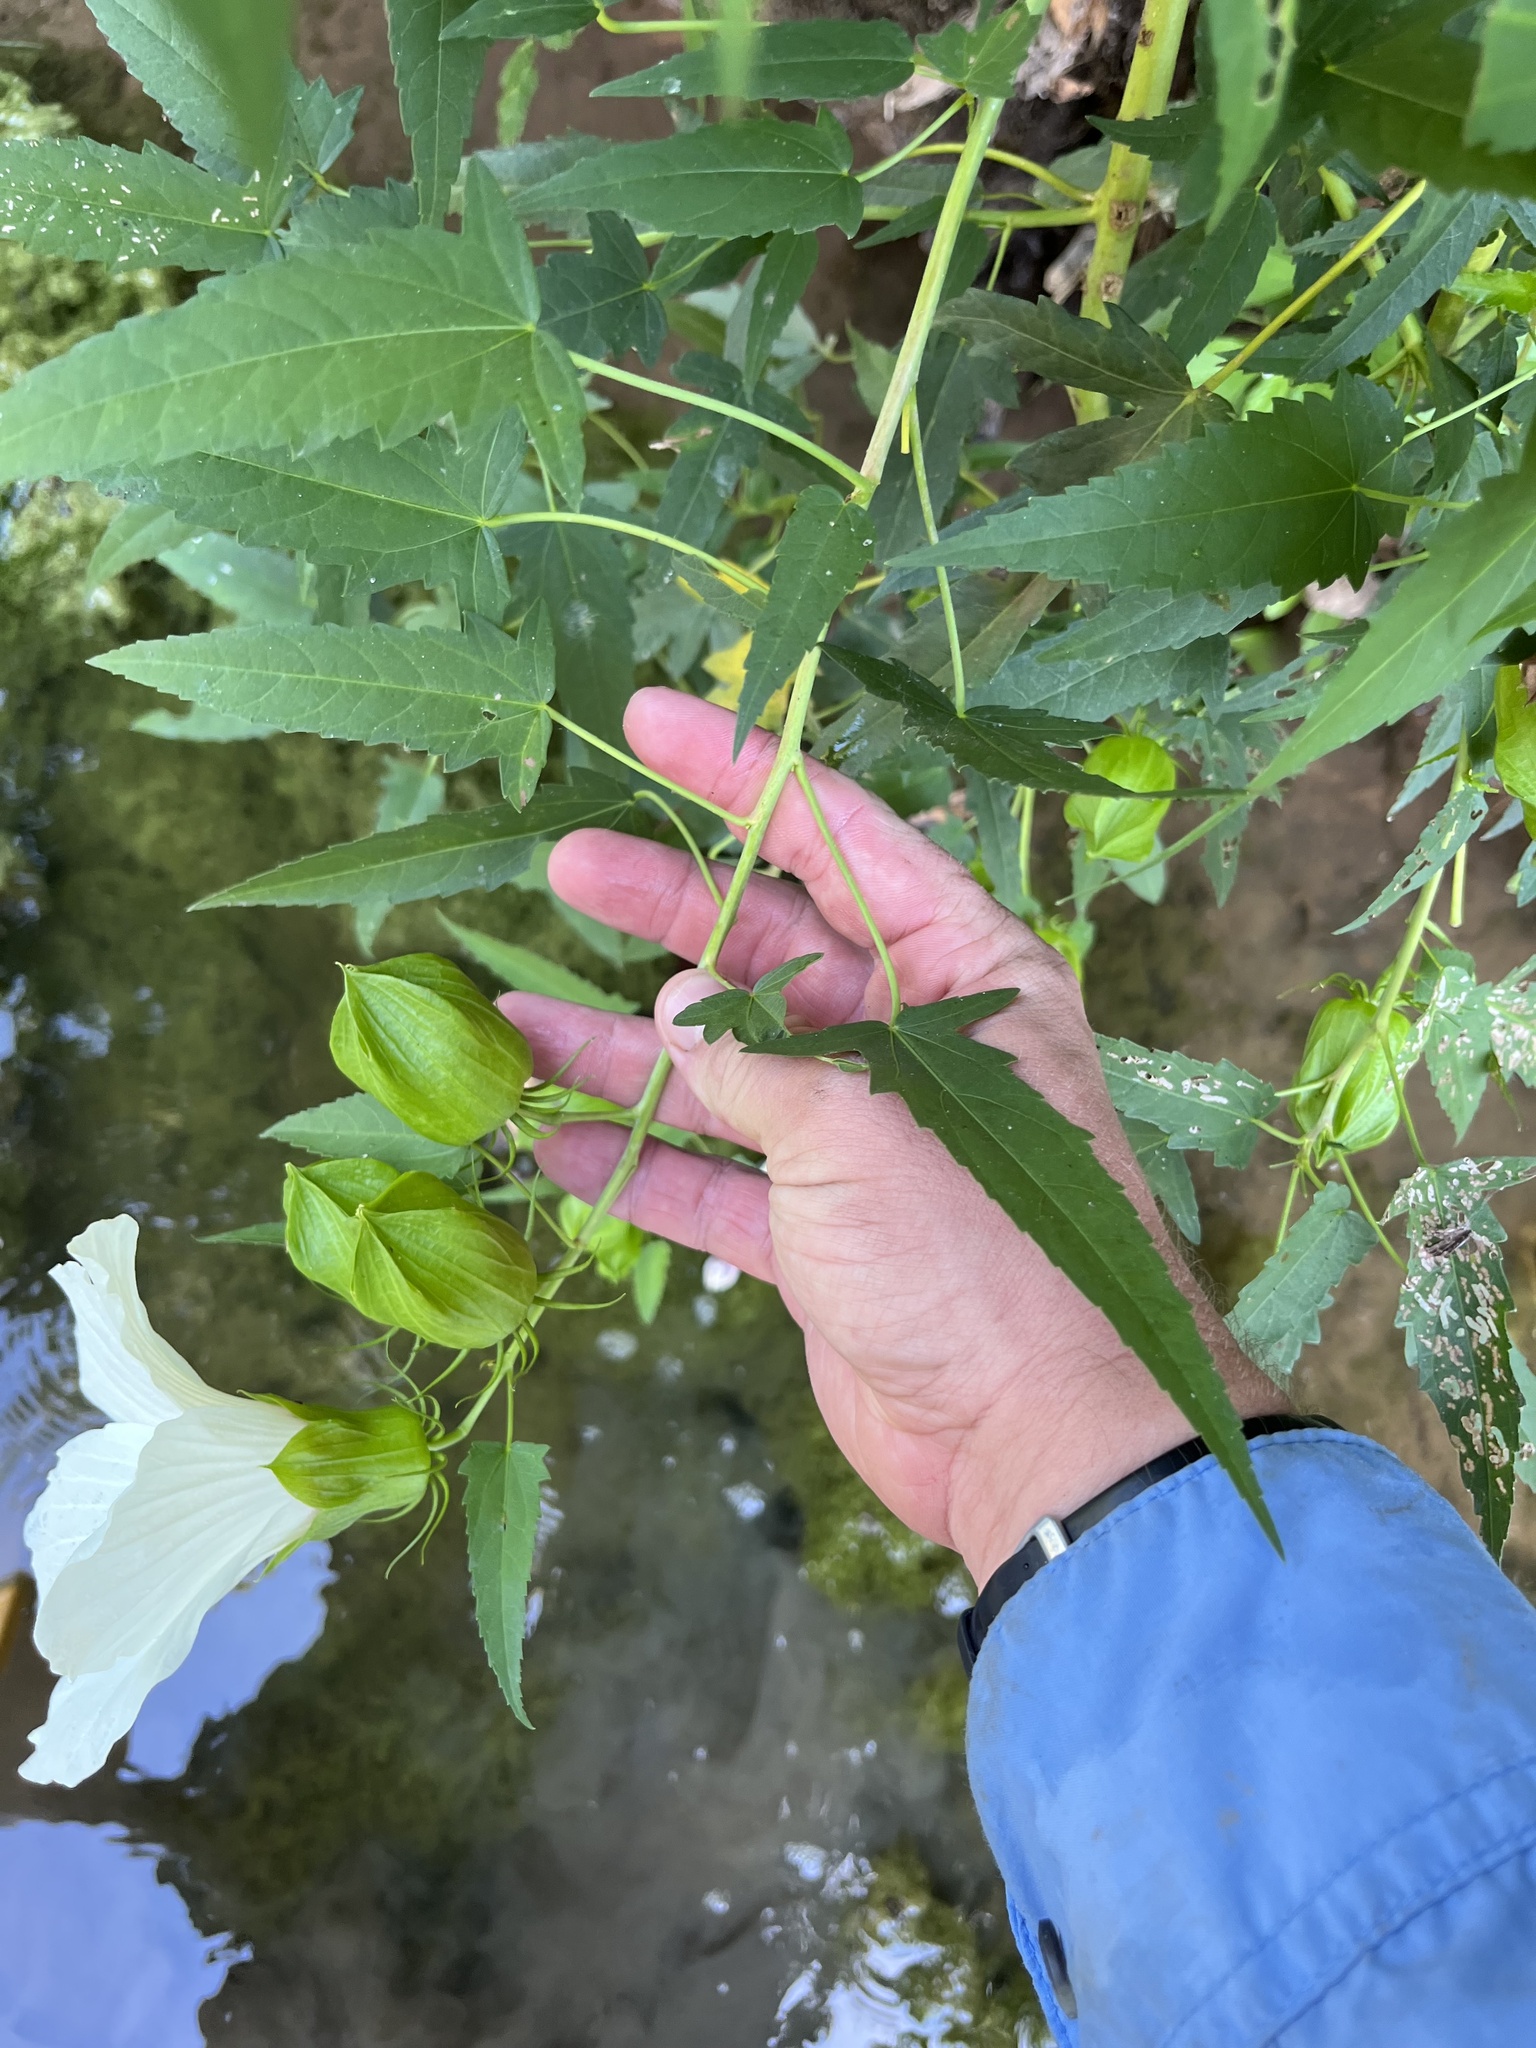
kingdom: Plantae
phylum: Tracheophyta
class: Magnoliopsida
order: Malvales
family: Malvaceae
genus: Hibiscus
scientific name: Hibiscus laevis
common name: Scarlet rose-mallow
